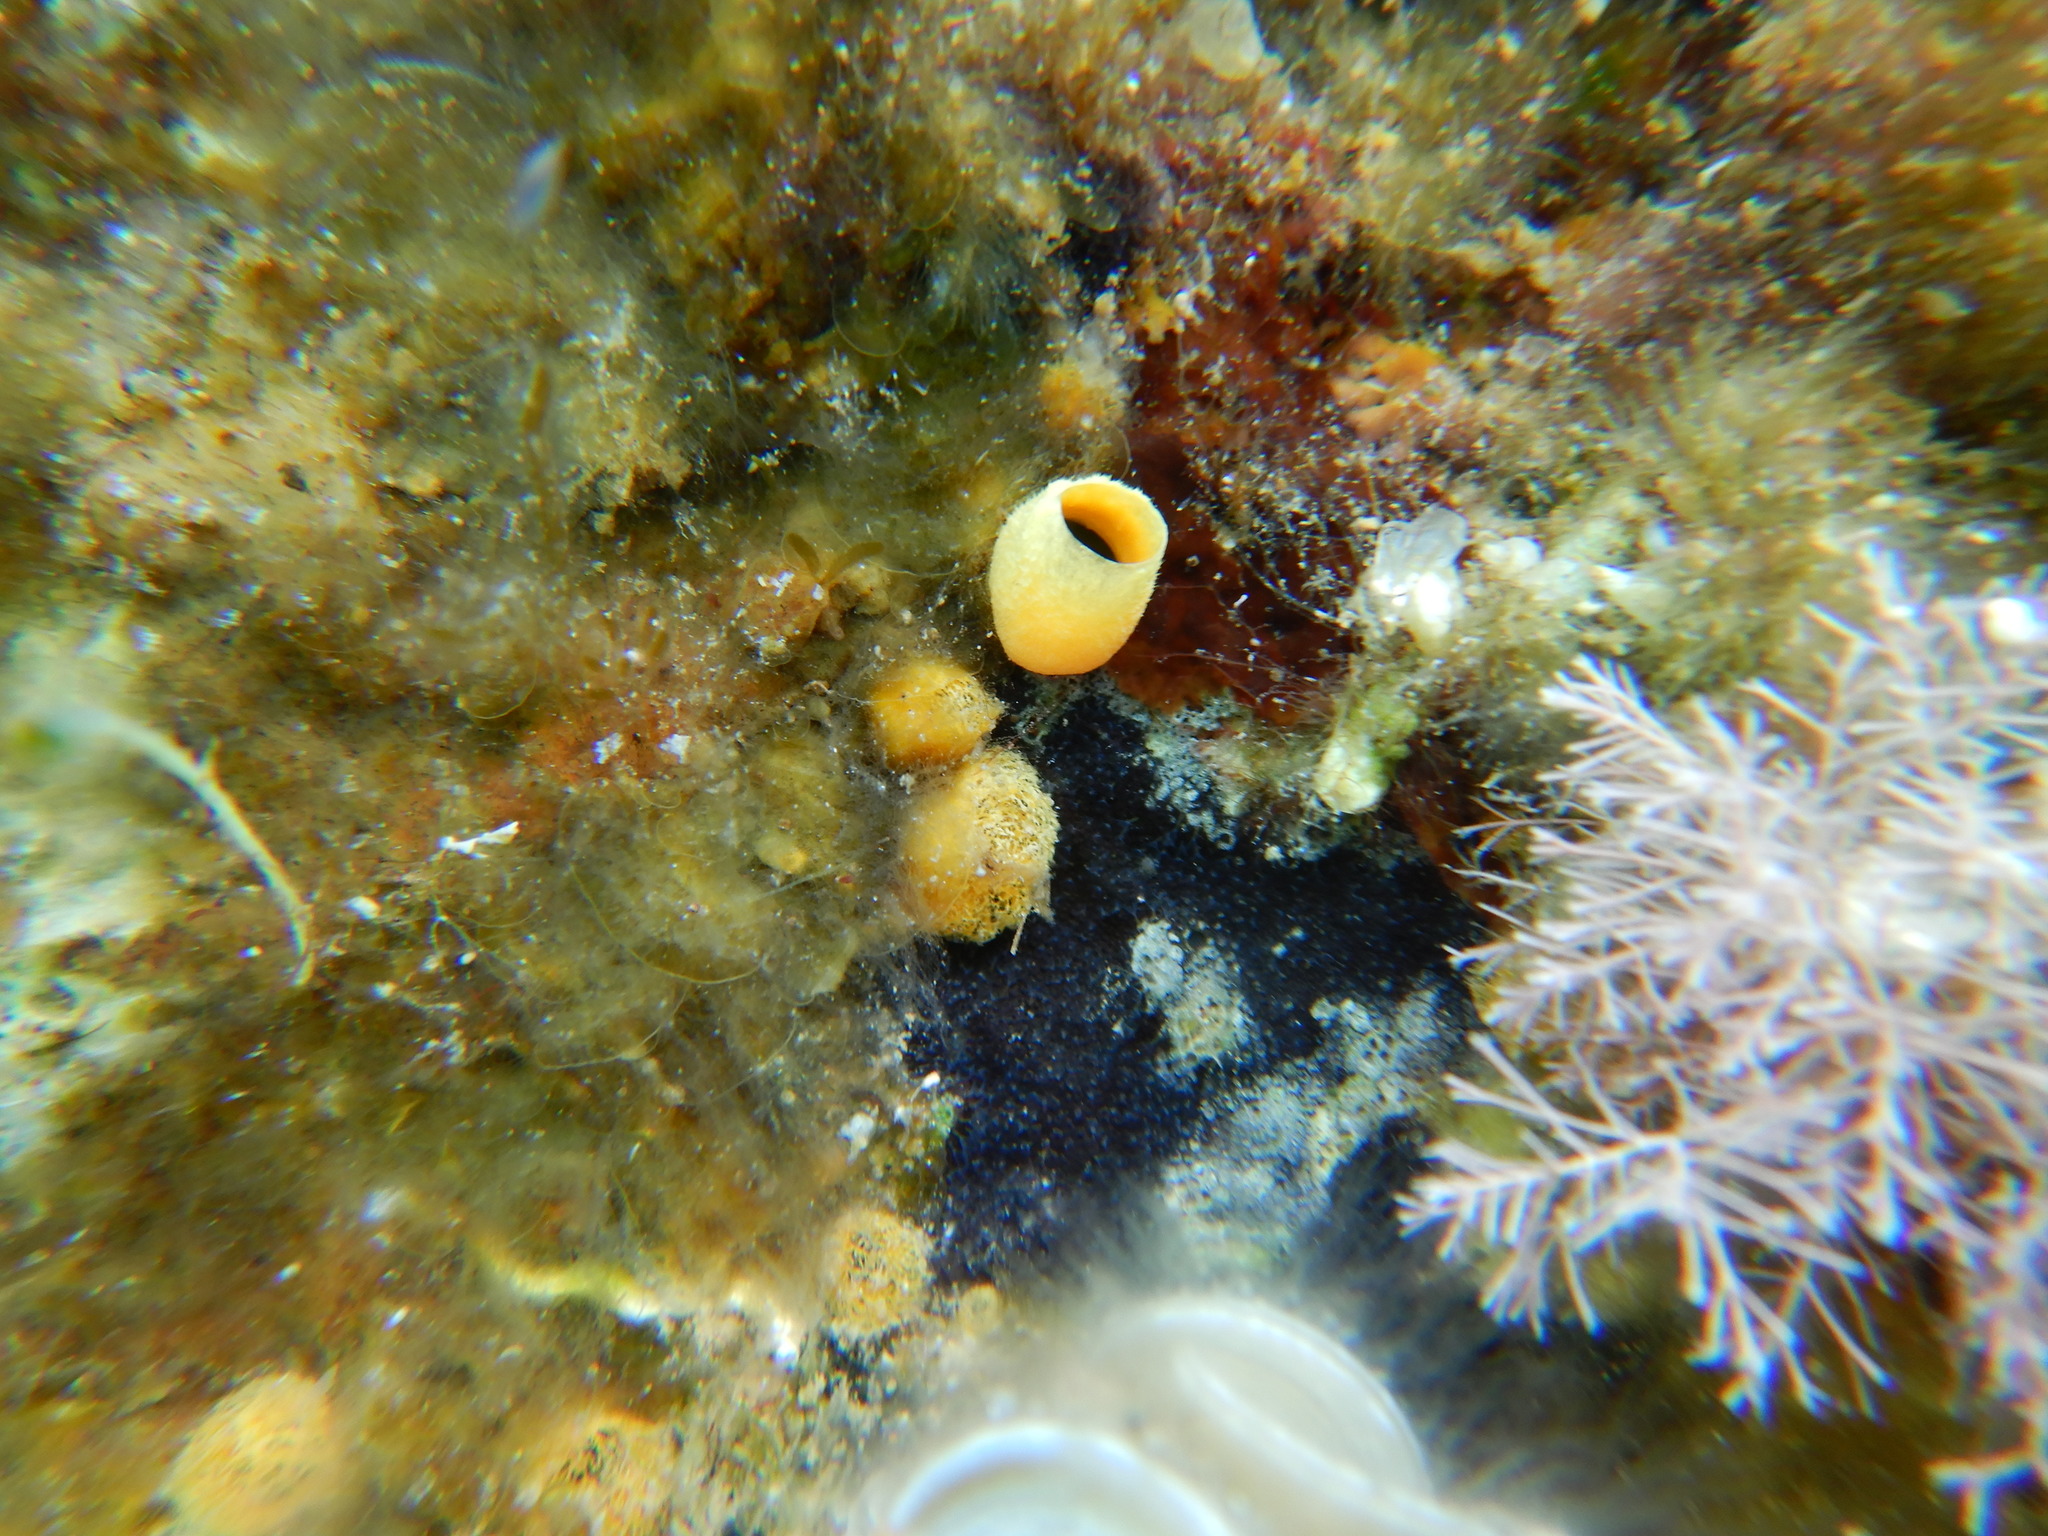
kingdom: Animalia
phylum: Porifera
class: Demospongiae
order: Clionaida
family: Clionaidae
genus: Cliona
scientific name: Cliona celata
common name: Boring sponge
